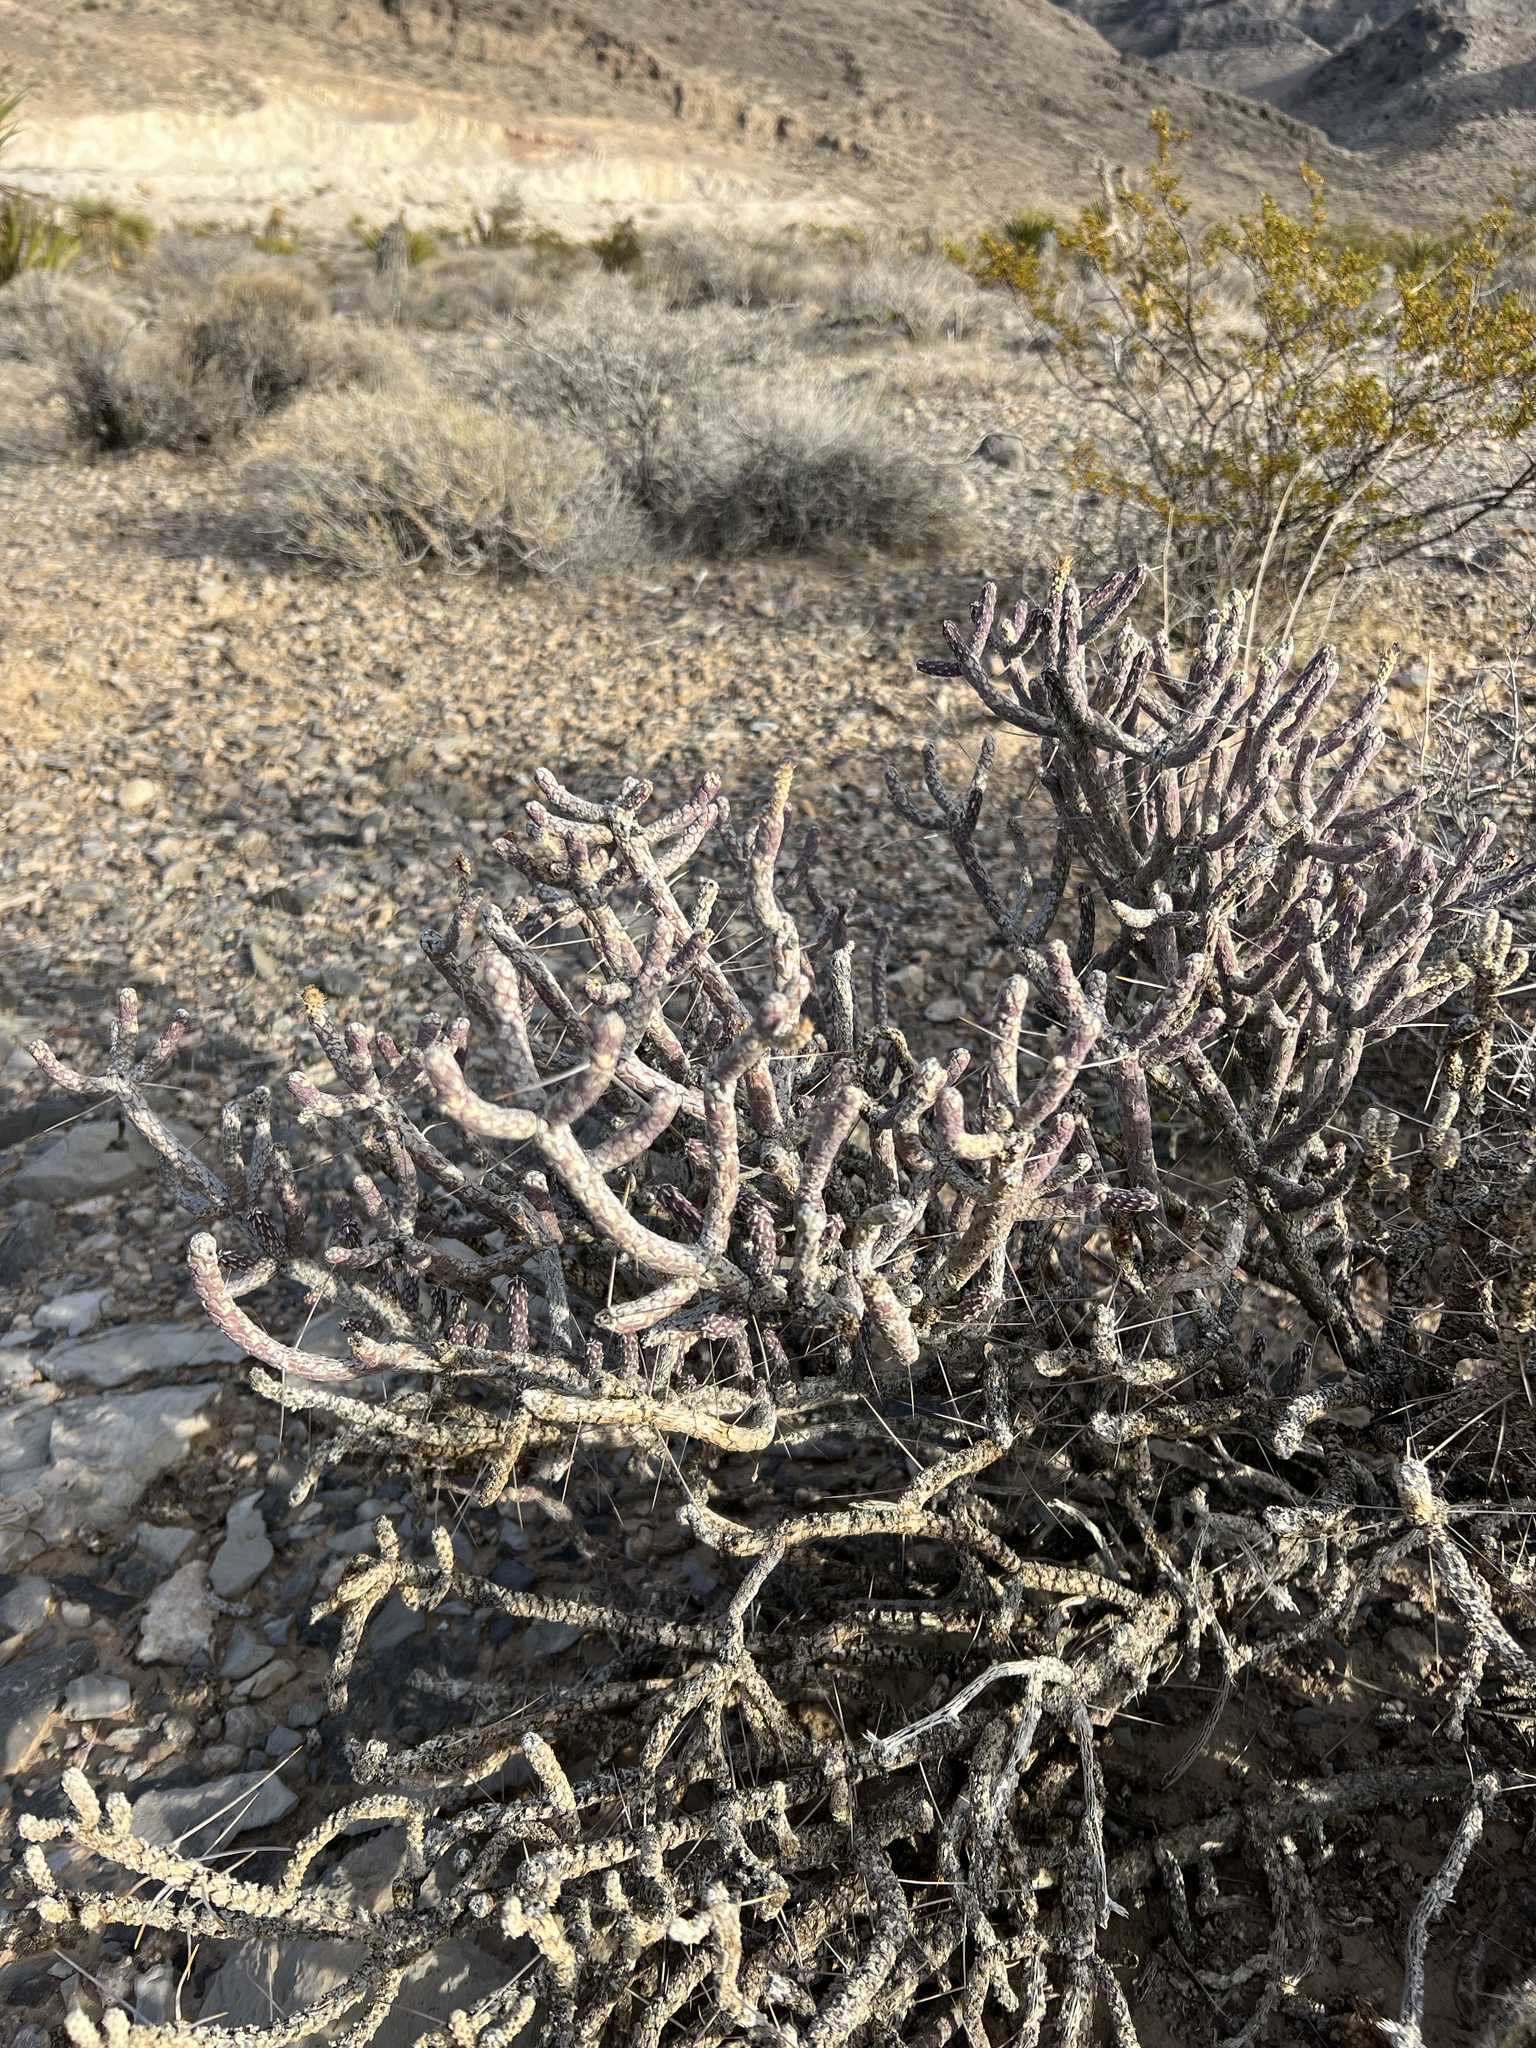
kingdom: Plantae
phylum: Tracheophyta
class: Magnoliopsida
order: Caryophyllales
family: Cactaceae
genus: Cylindropuntia
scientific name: Cylindropuntia ramosissima
